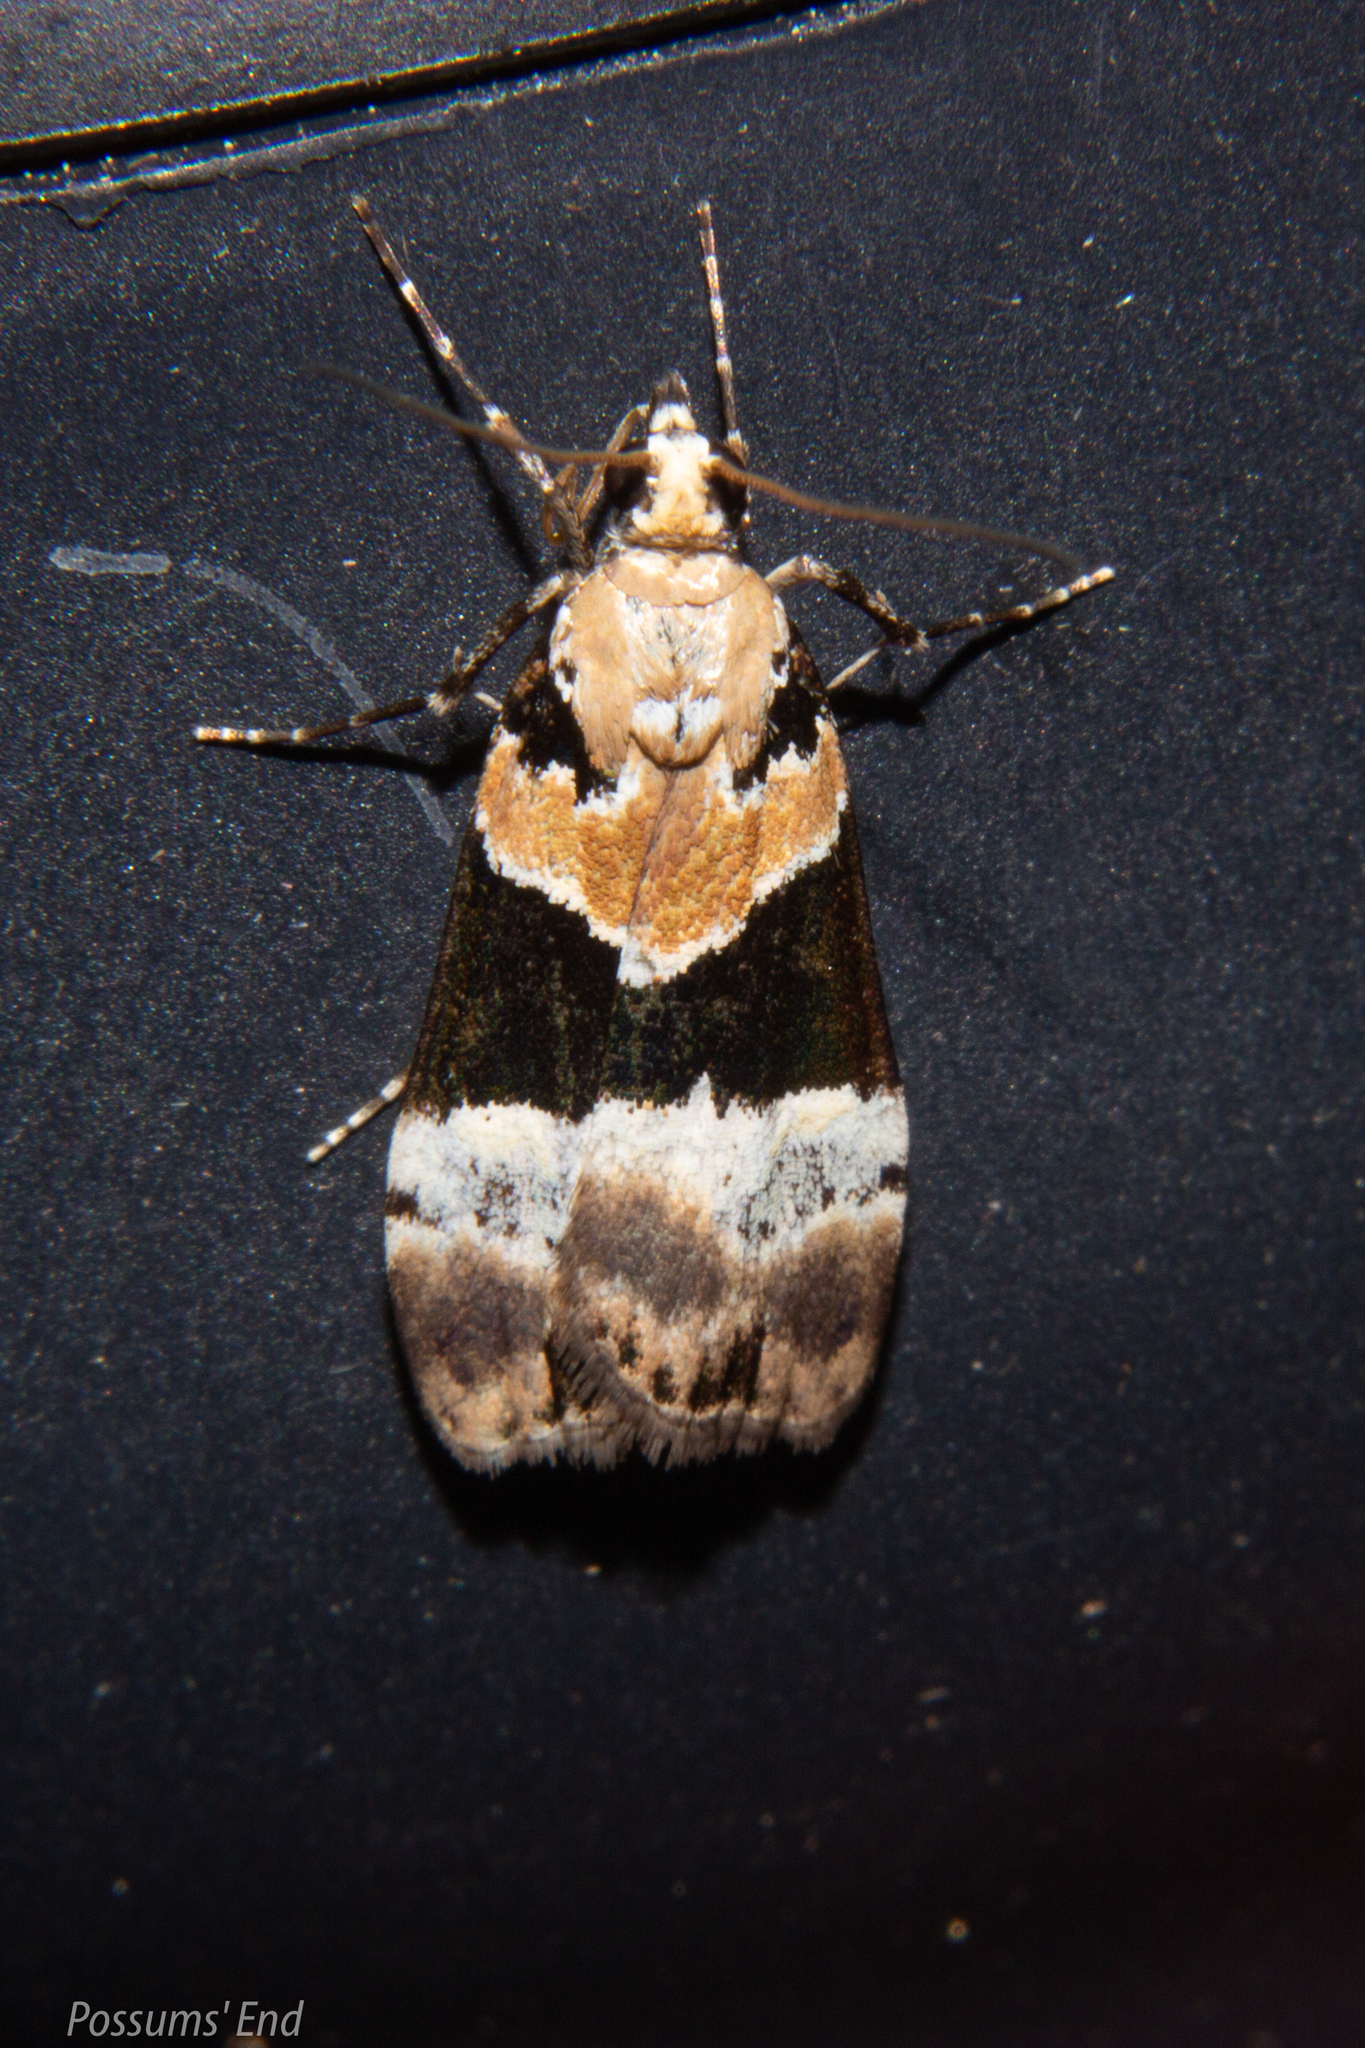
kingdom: Animalia
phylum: Arthropoda
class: Insecta
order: Lepidoptera
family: Crambidae
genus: Eudonia
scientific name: Eudonia aspidota
